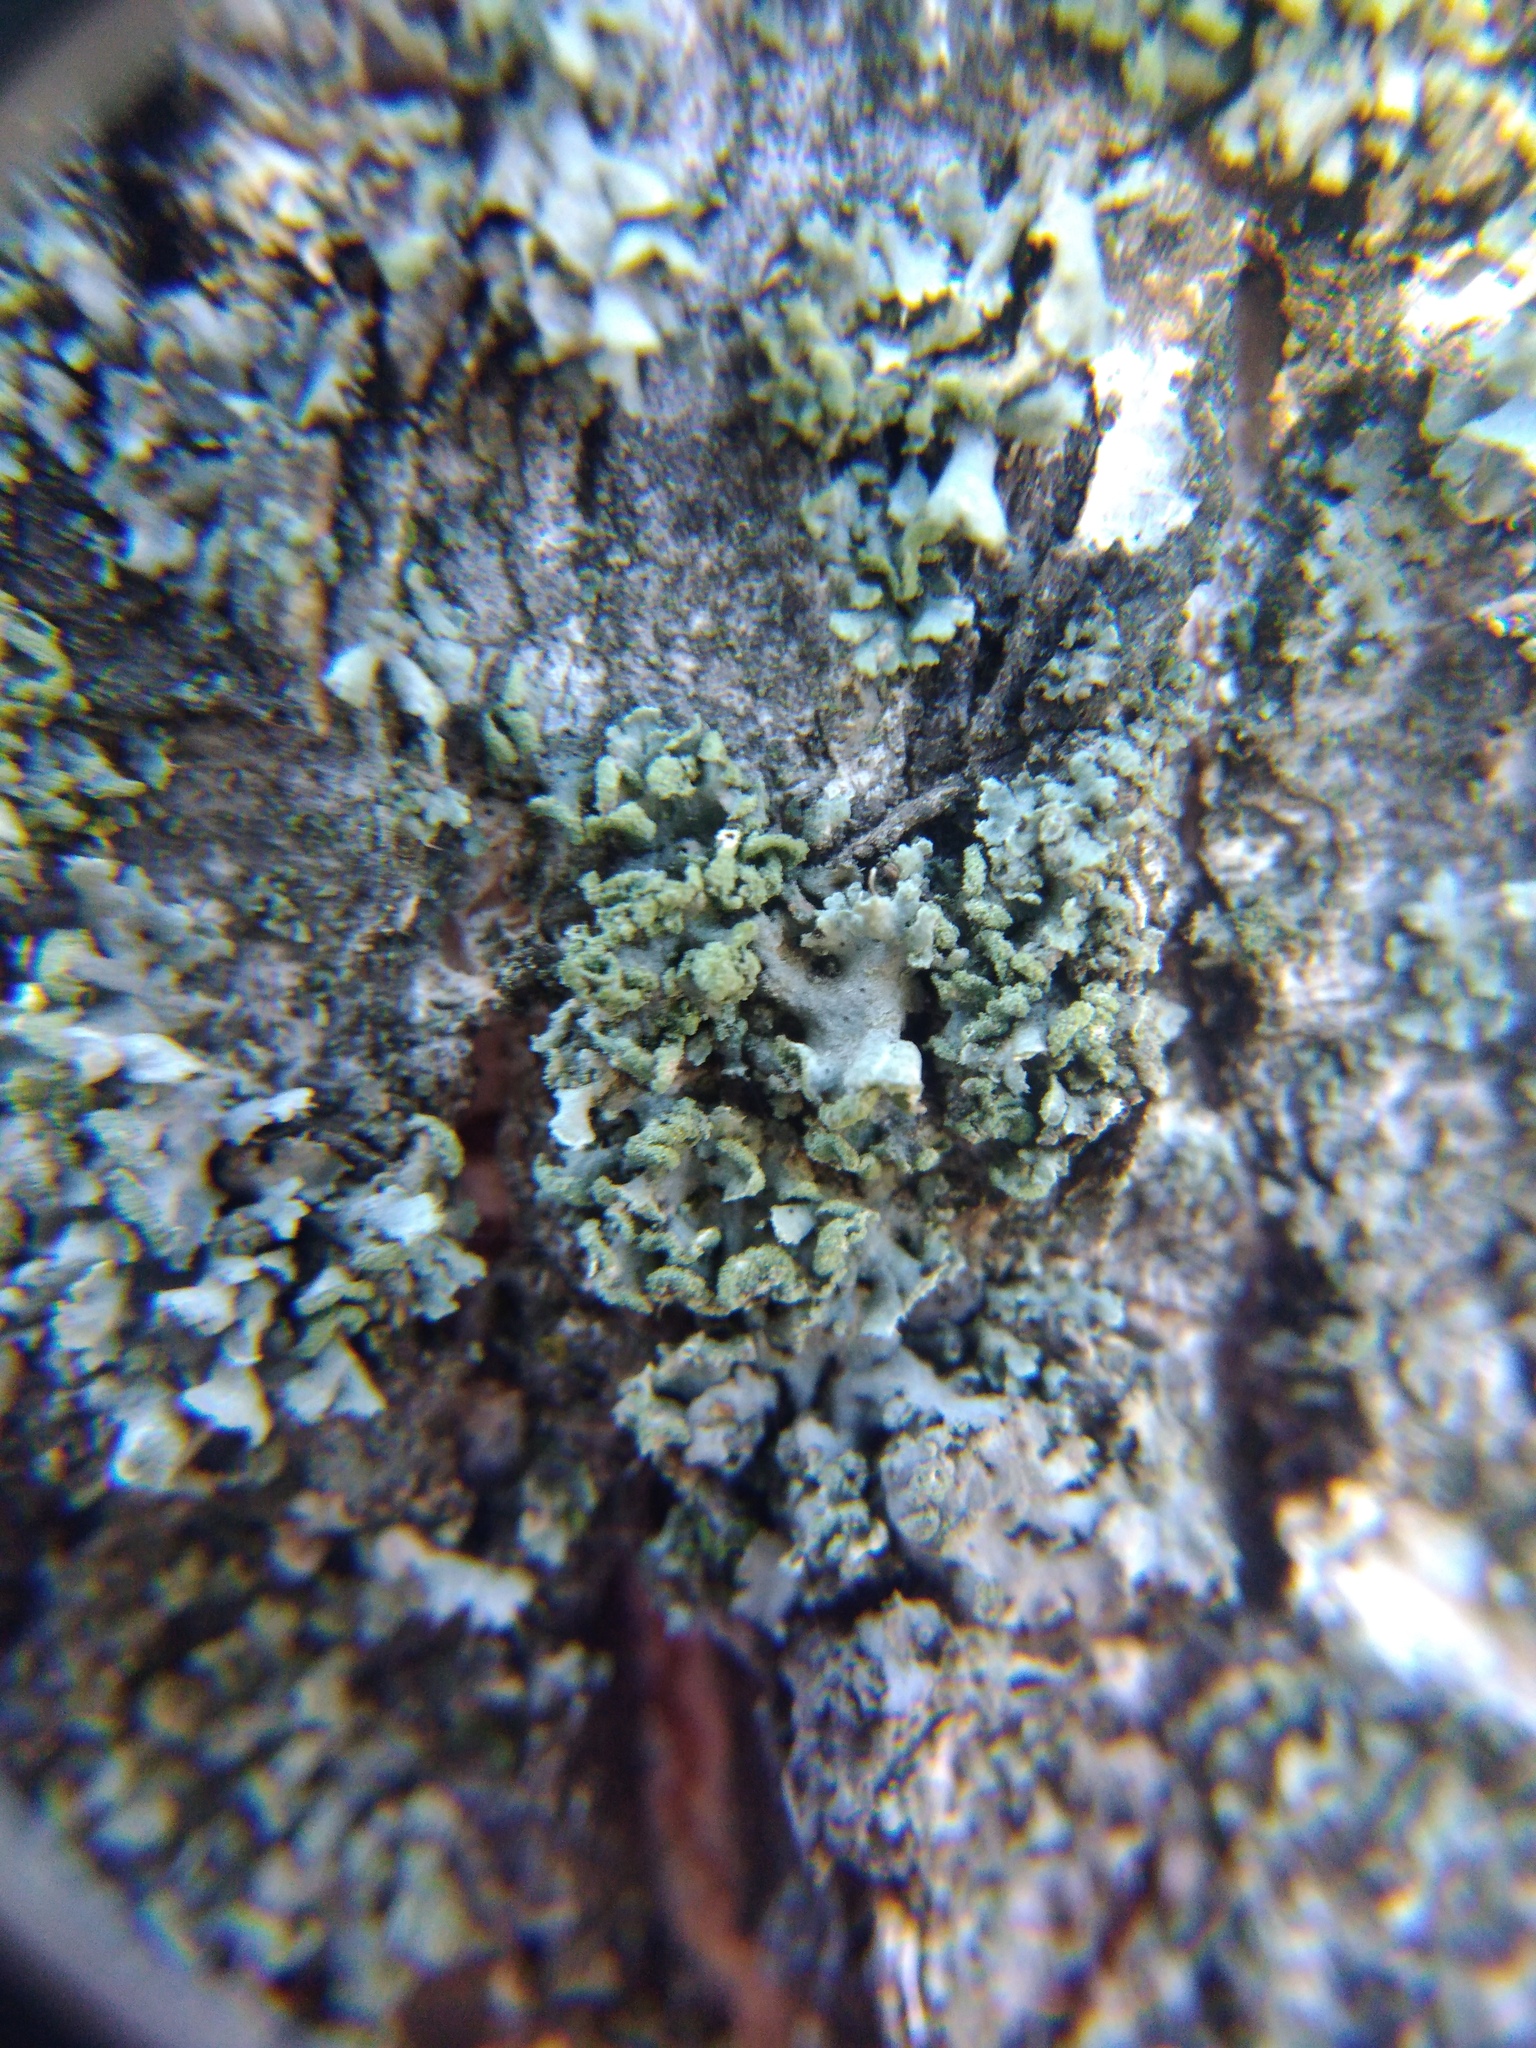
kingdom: Fungi
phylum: Ascomycota
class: Lecanoromycetes
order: Caliciales
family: Physciaceae
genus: Physcia
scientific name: Physcia tenella
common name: Fringed rosette lichen
